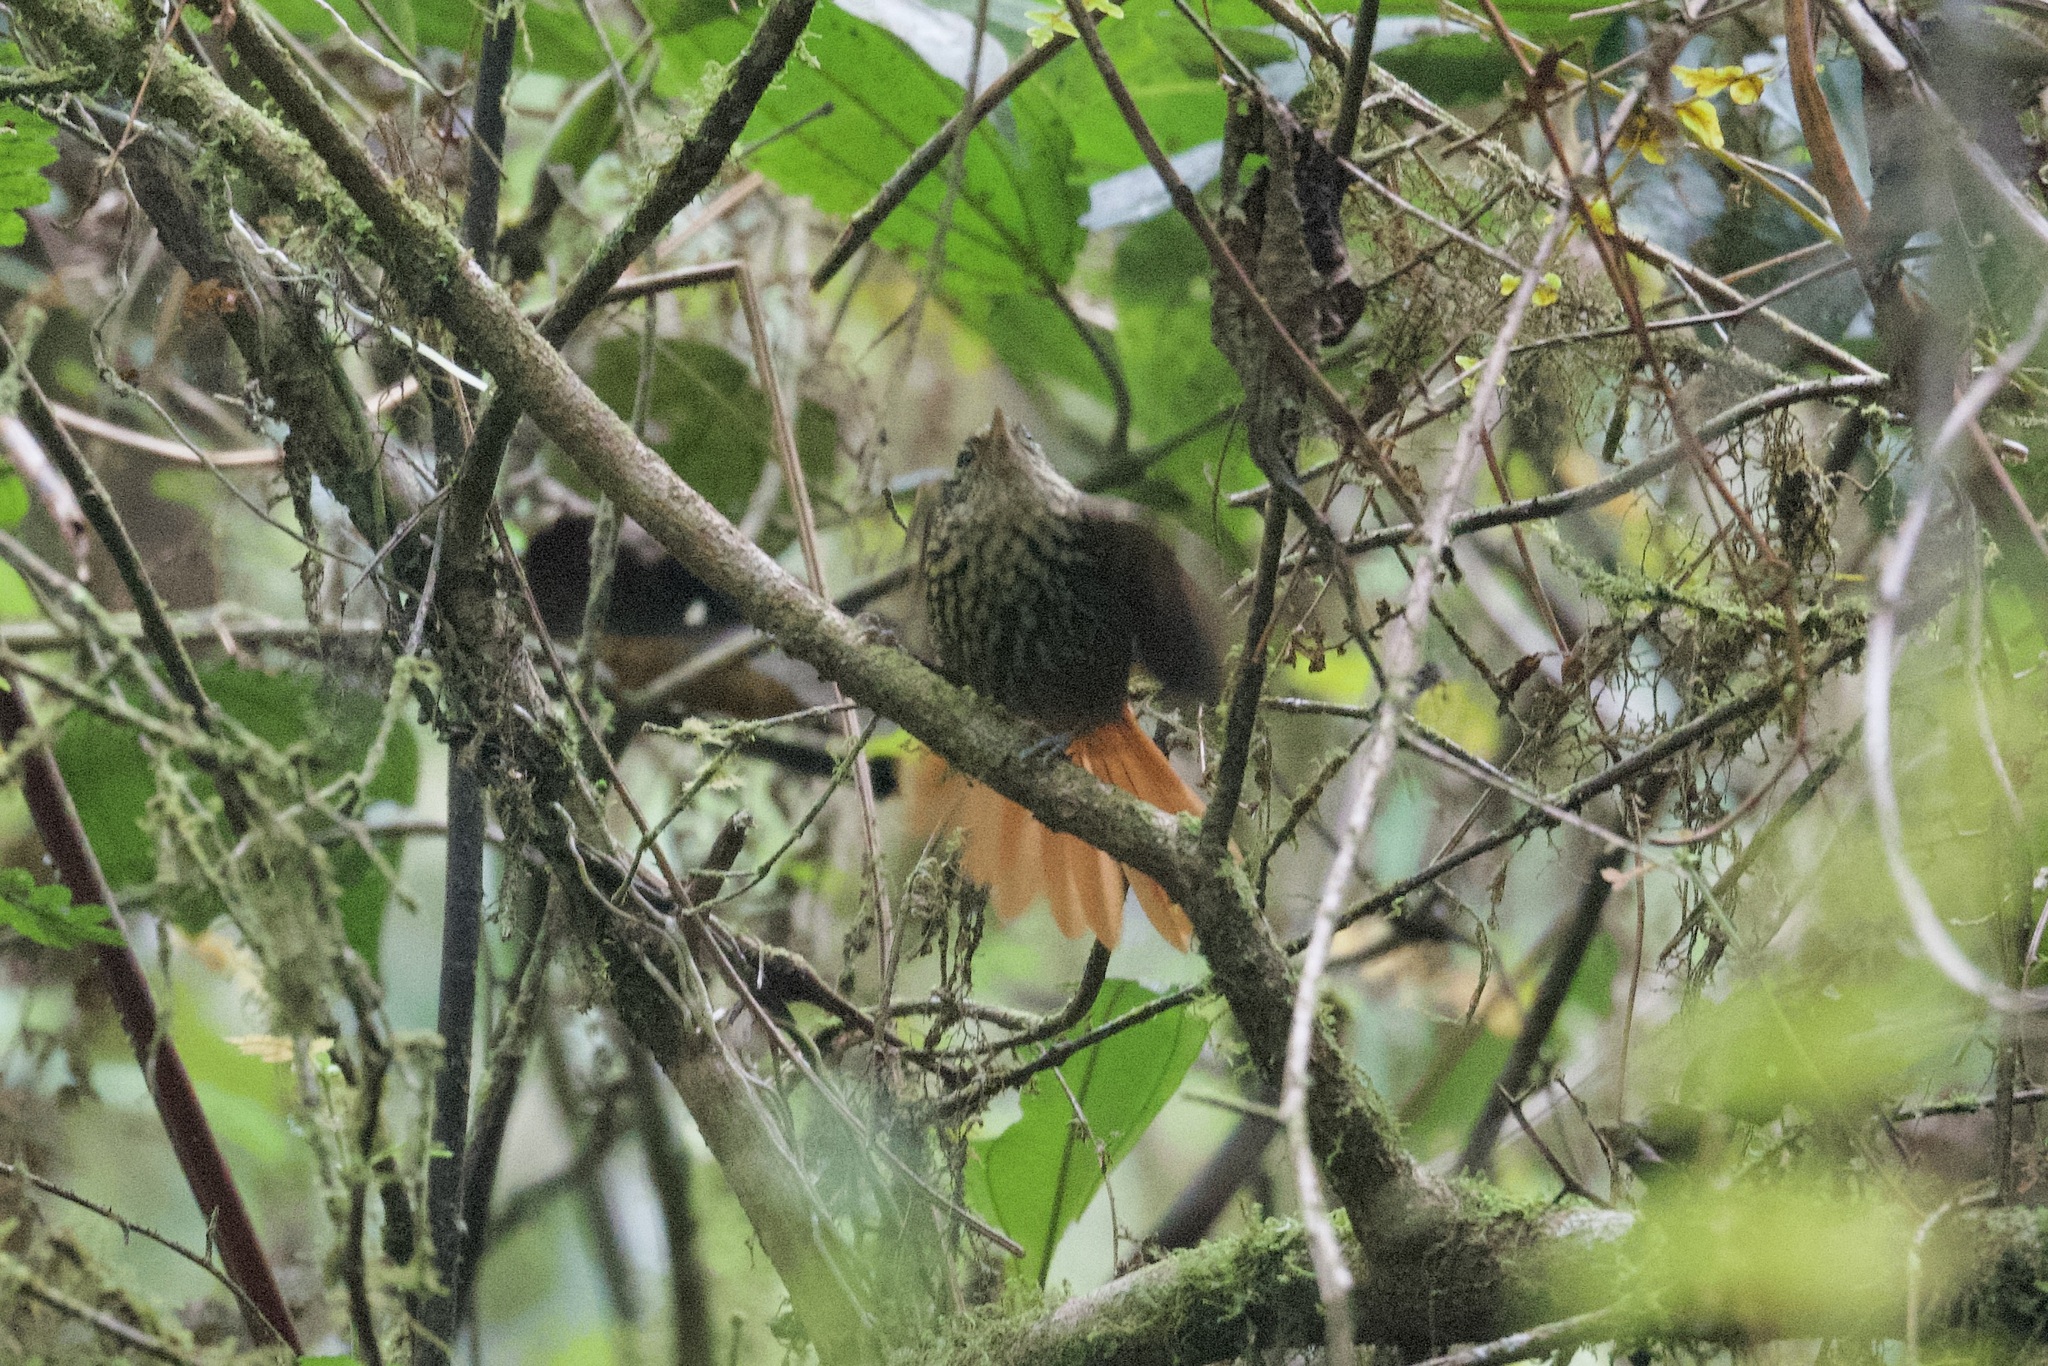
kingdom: Animalia
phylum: Chordata
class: Aves
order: Passeriformes
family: Furnariidae
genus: Premnornis
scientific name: Premnornis guttuliger
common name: Rusty-winged barbtail
